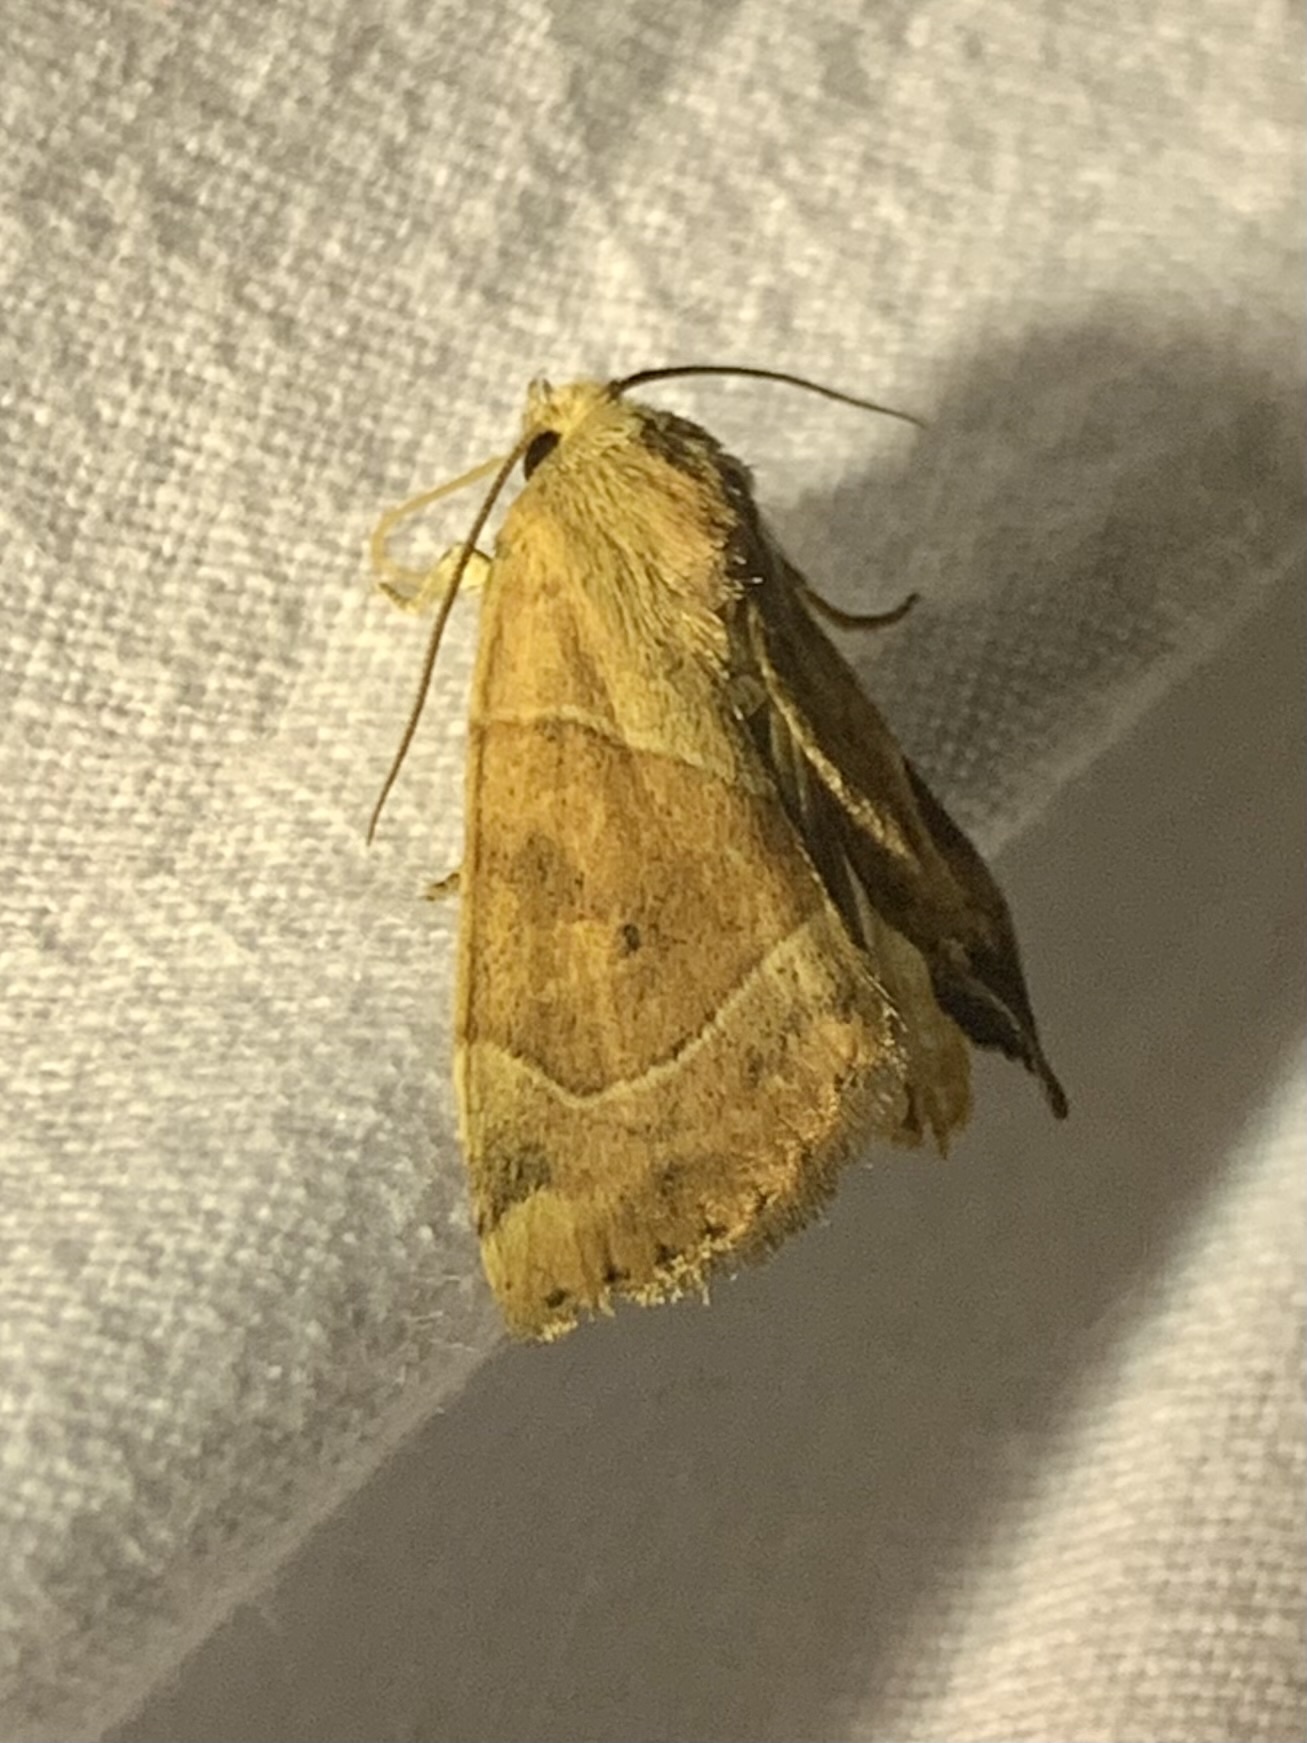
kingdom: Animalia
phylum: Arthropoda
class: Insecta
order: Lepidoptera
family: Noctuidae
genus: Cosmia
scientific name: Cosmia trapezina
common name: Dun-bar
